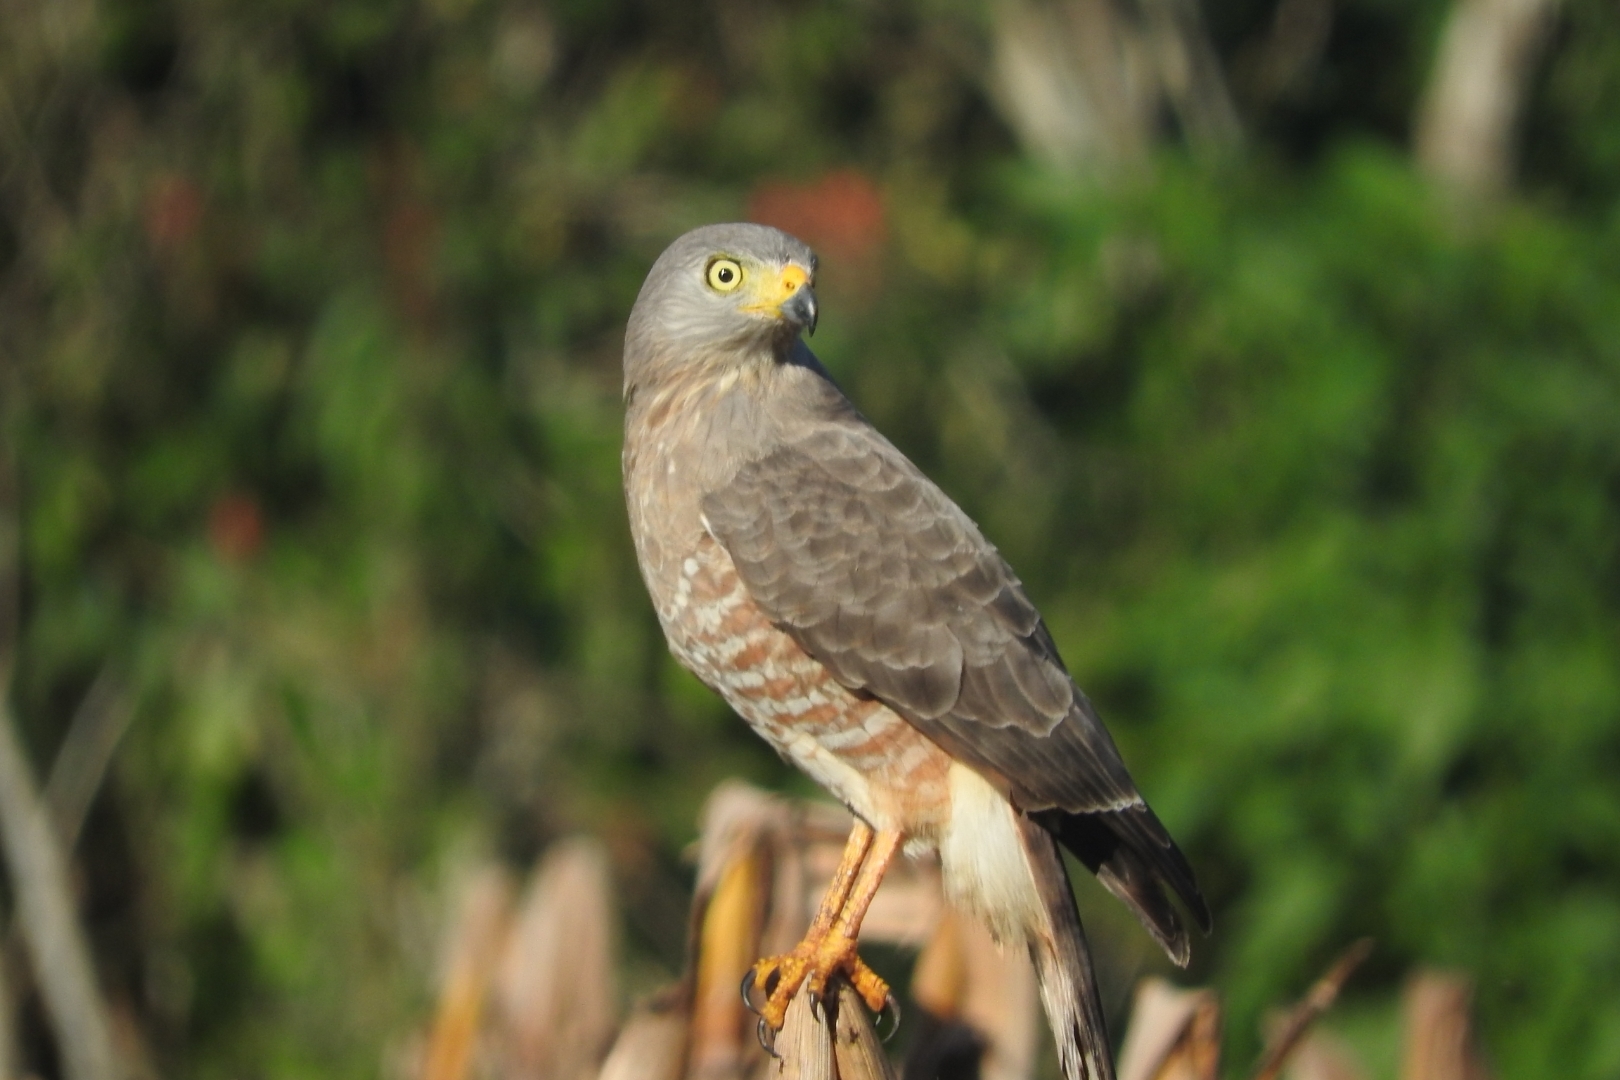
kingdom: Animalia
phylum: Chordata
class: Aves
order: Accipitriformes
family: Accipitridae
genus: Rupornis
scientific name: Rupornis magnirostris
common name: Roadside hawk
